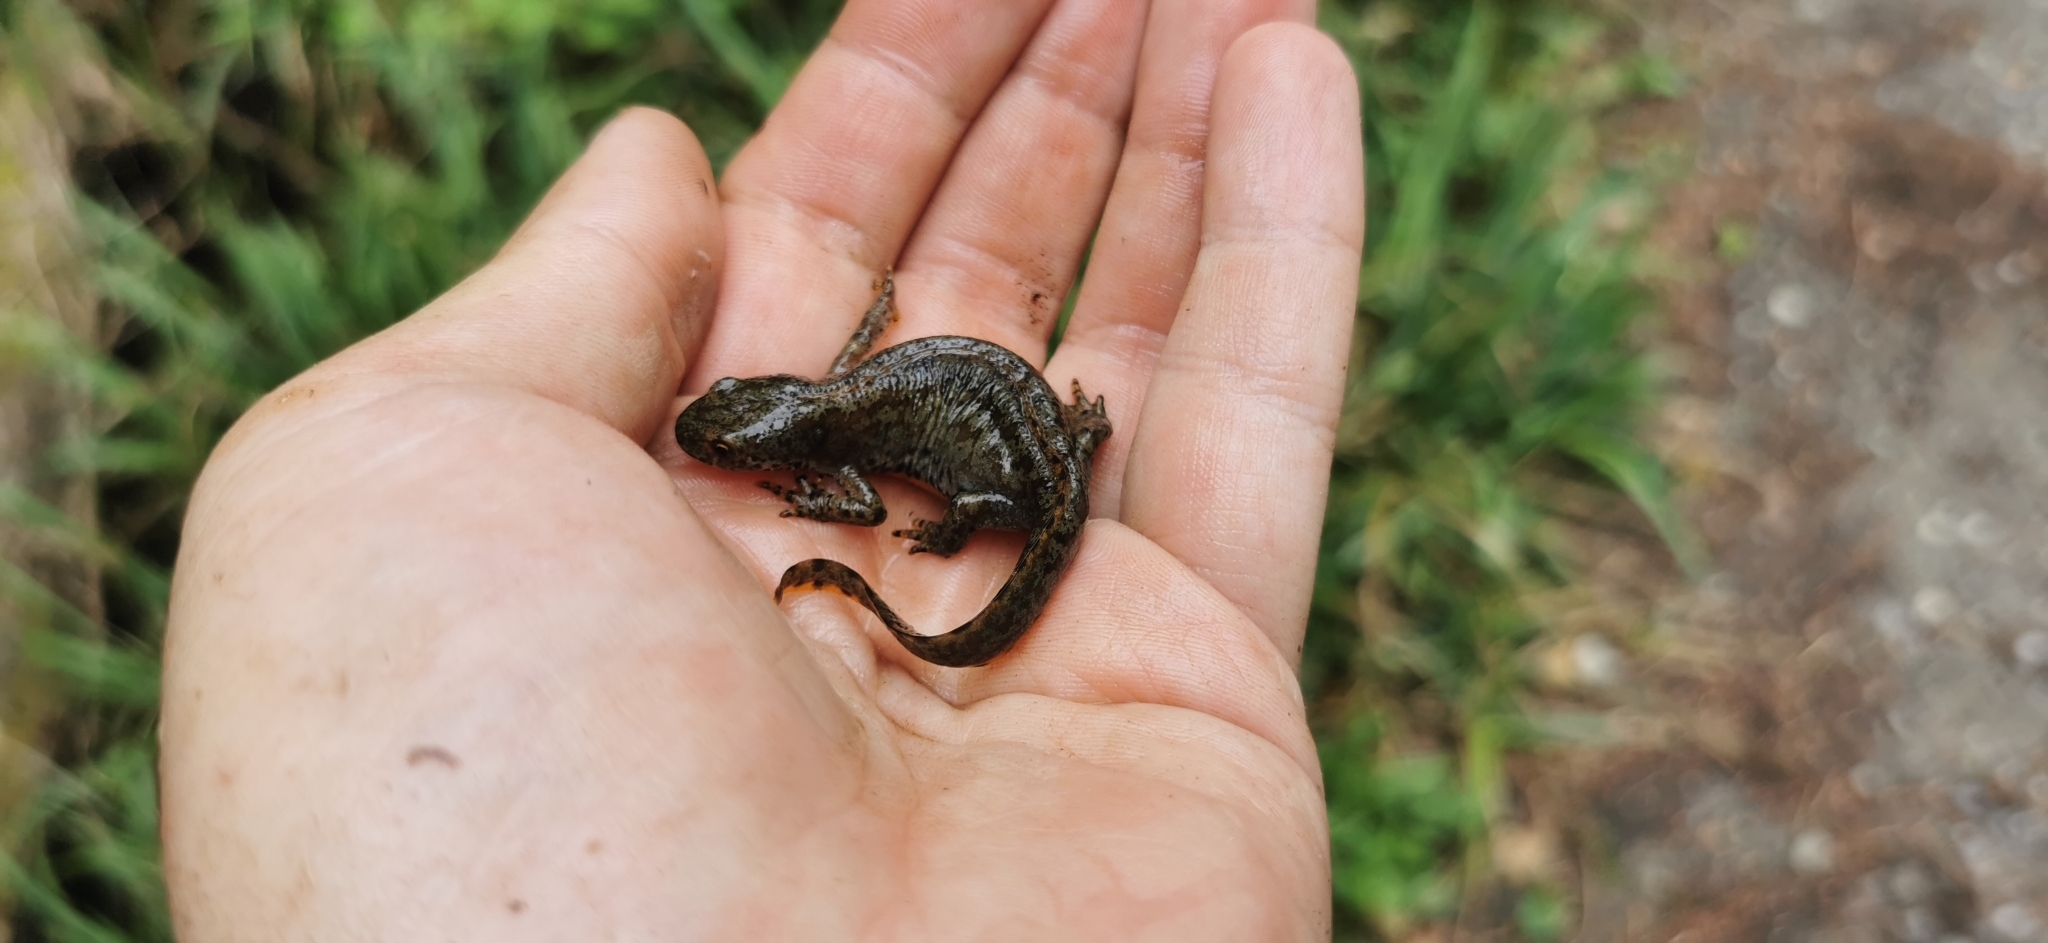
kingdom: Animalia
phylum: Chordata
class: Amphibia
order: Caudata
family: Salamandridae
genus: Ichthyosaura
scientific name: Ichthyosaura alpestris
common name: Alpine newt
